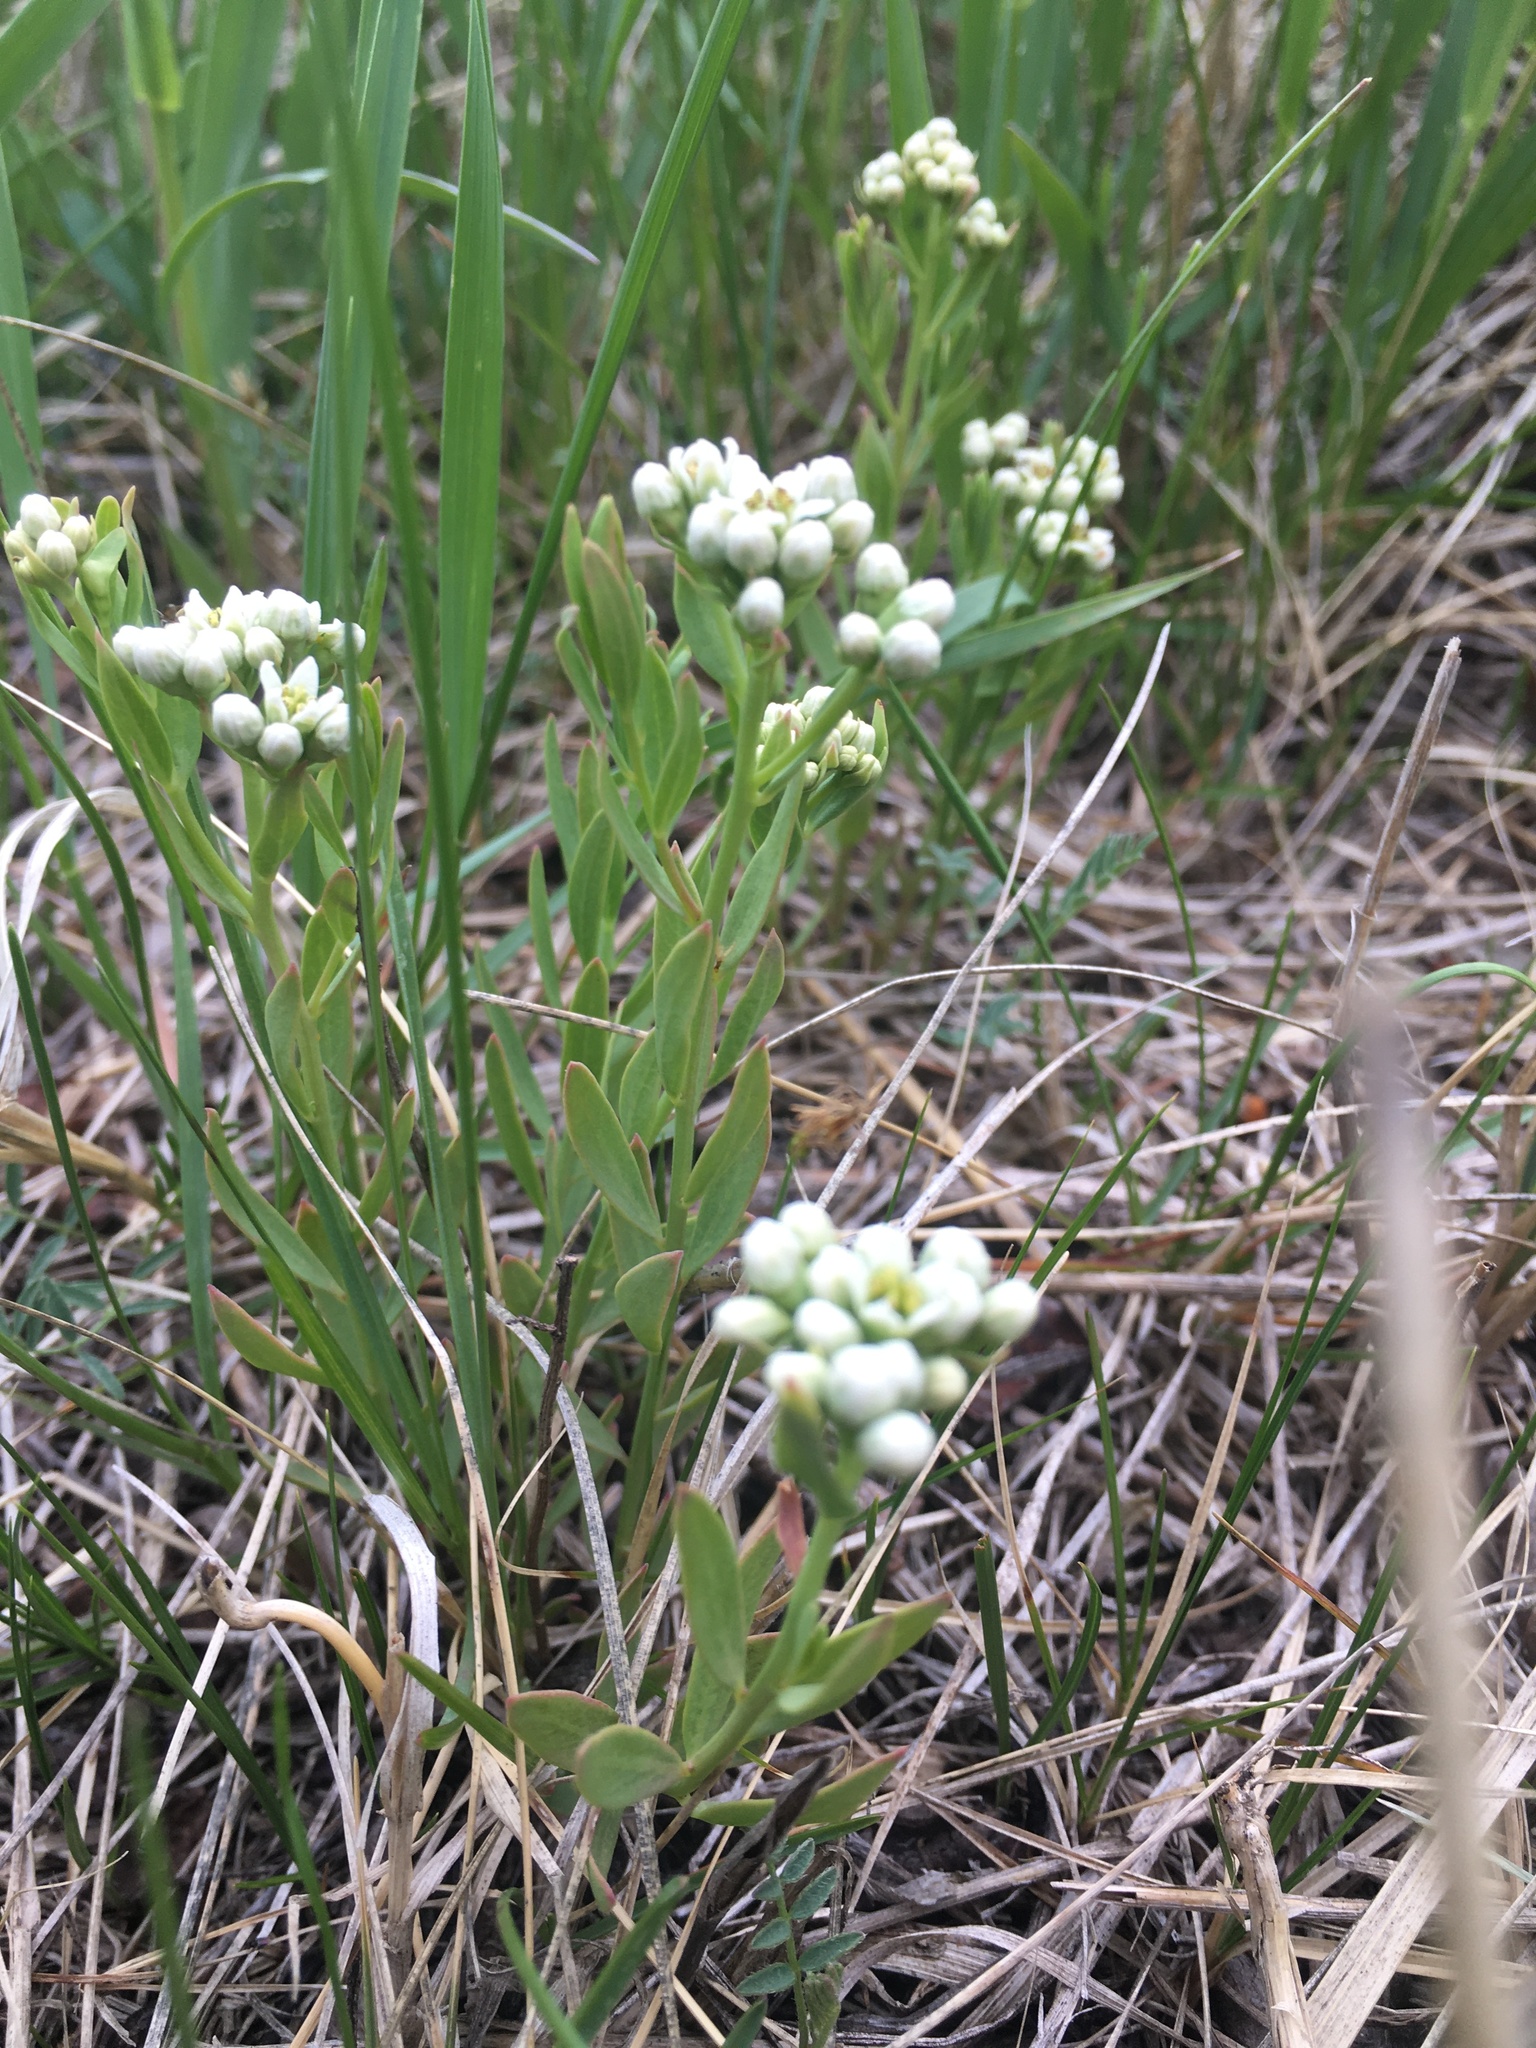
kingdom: Plantae
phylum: Tracheophyta
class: Magnoliopsida
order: Santalales
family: Comandraceae
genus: Comandra
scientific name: Comandra umbellata
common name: Bastard toadflax
